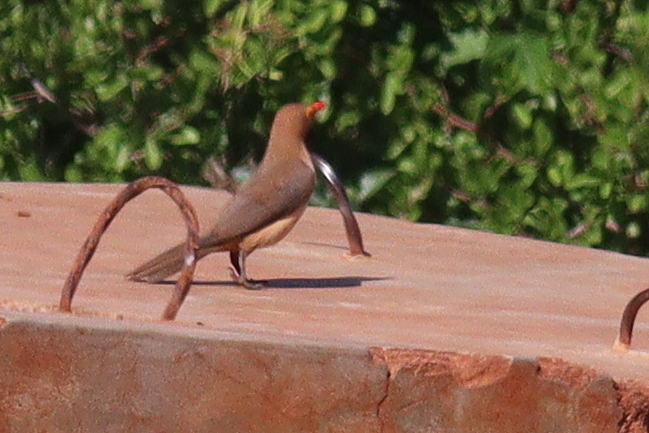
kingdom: Animalia
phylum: Chordata
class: Aves
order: Passeriformes
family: Buphagidae
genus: Buphagus
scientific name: Buphagus erythrorhynchus
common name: Red-billed oxpecker
